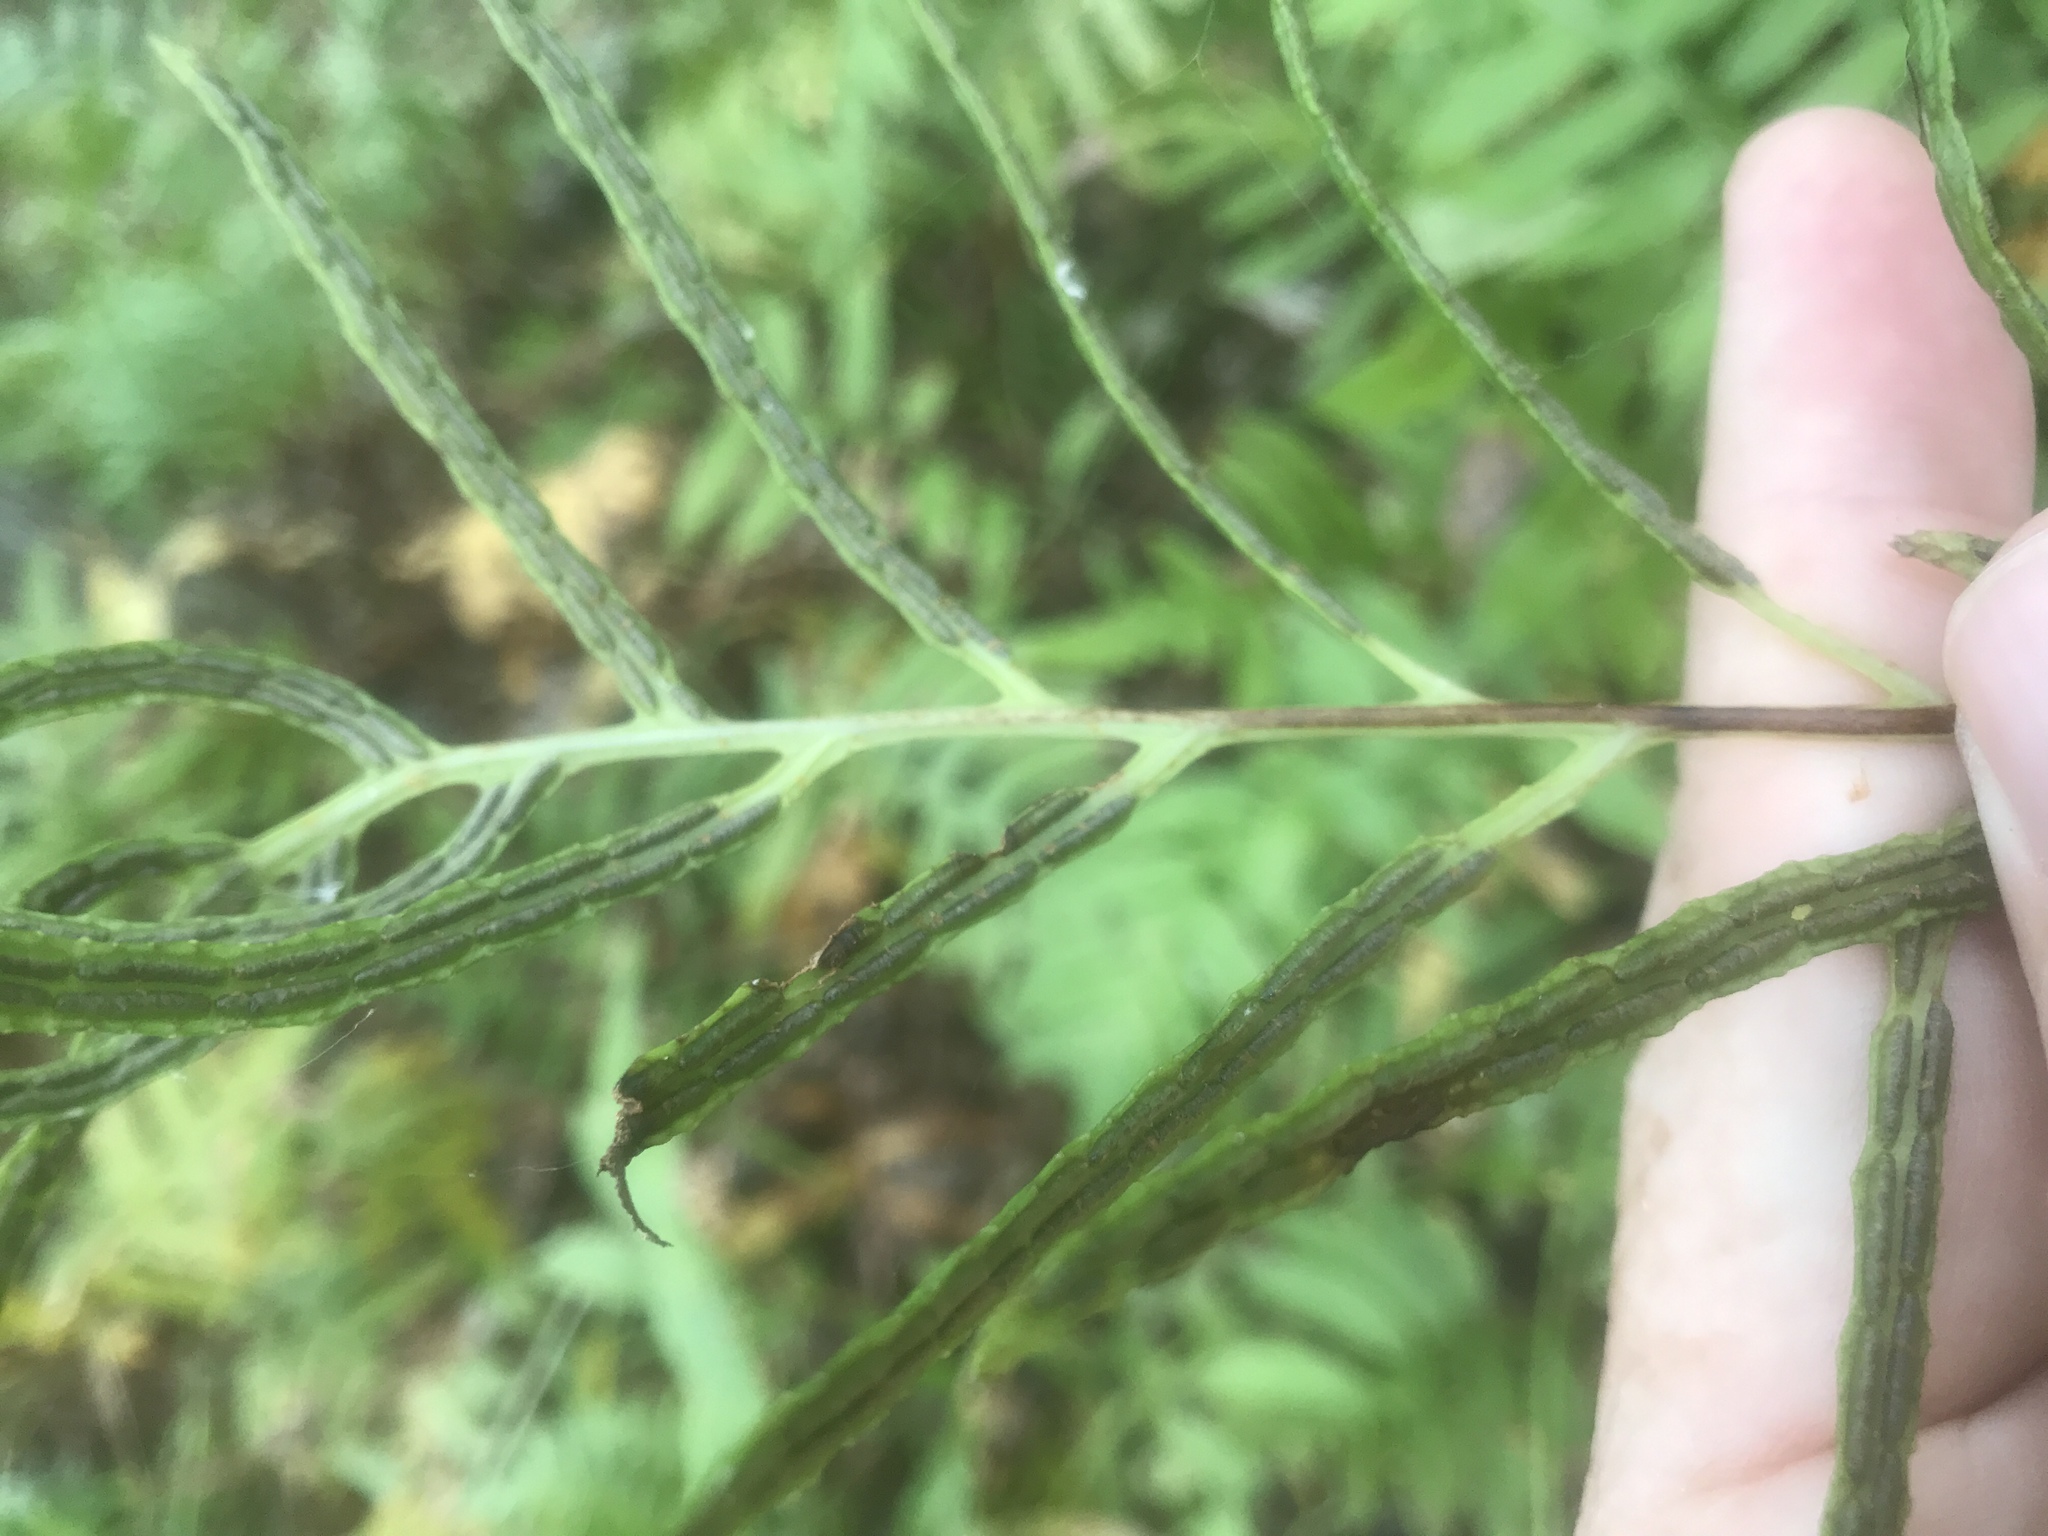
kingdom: Plantae
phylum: Tracheophyta
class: Polypodiopsida
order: Polypodiales
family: Blechnaceae
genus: Lorinseria
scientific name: Lorinseria areolata
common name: Dwarf chain fern
